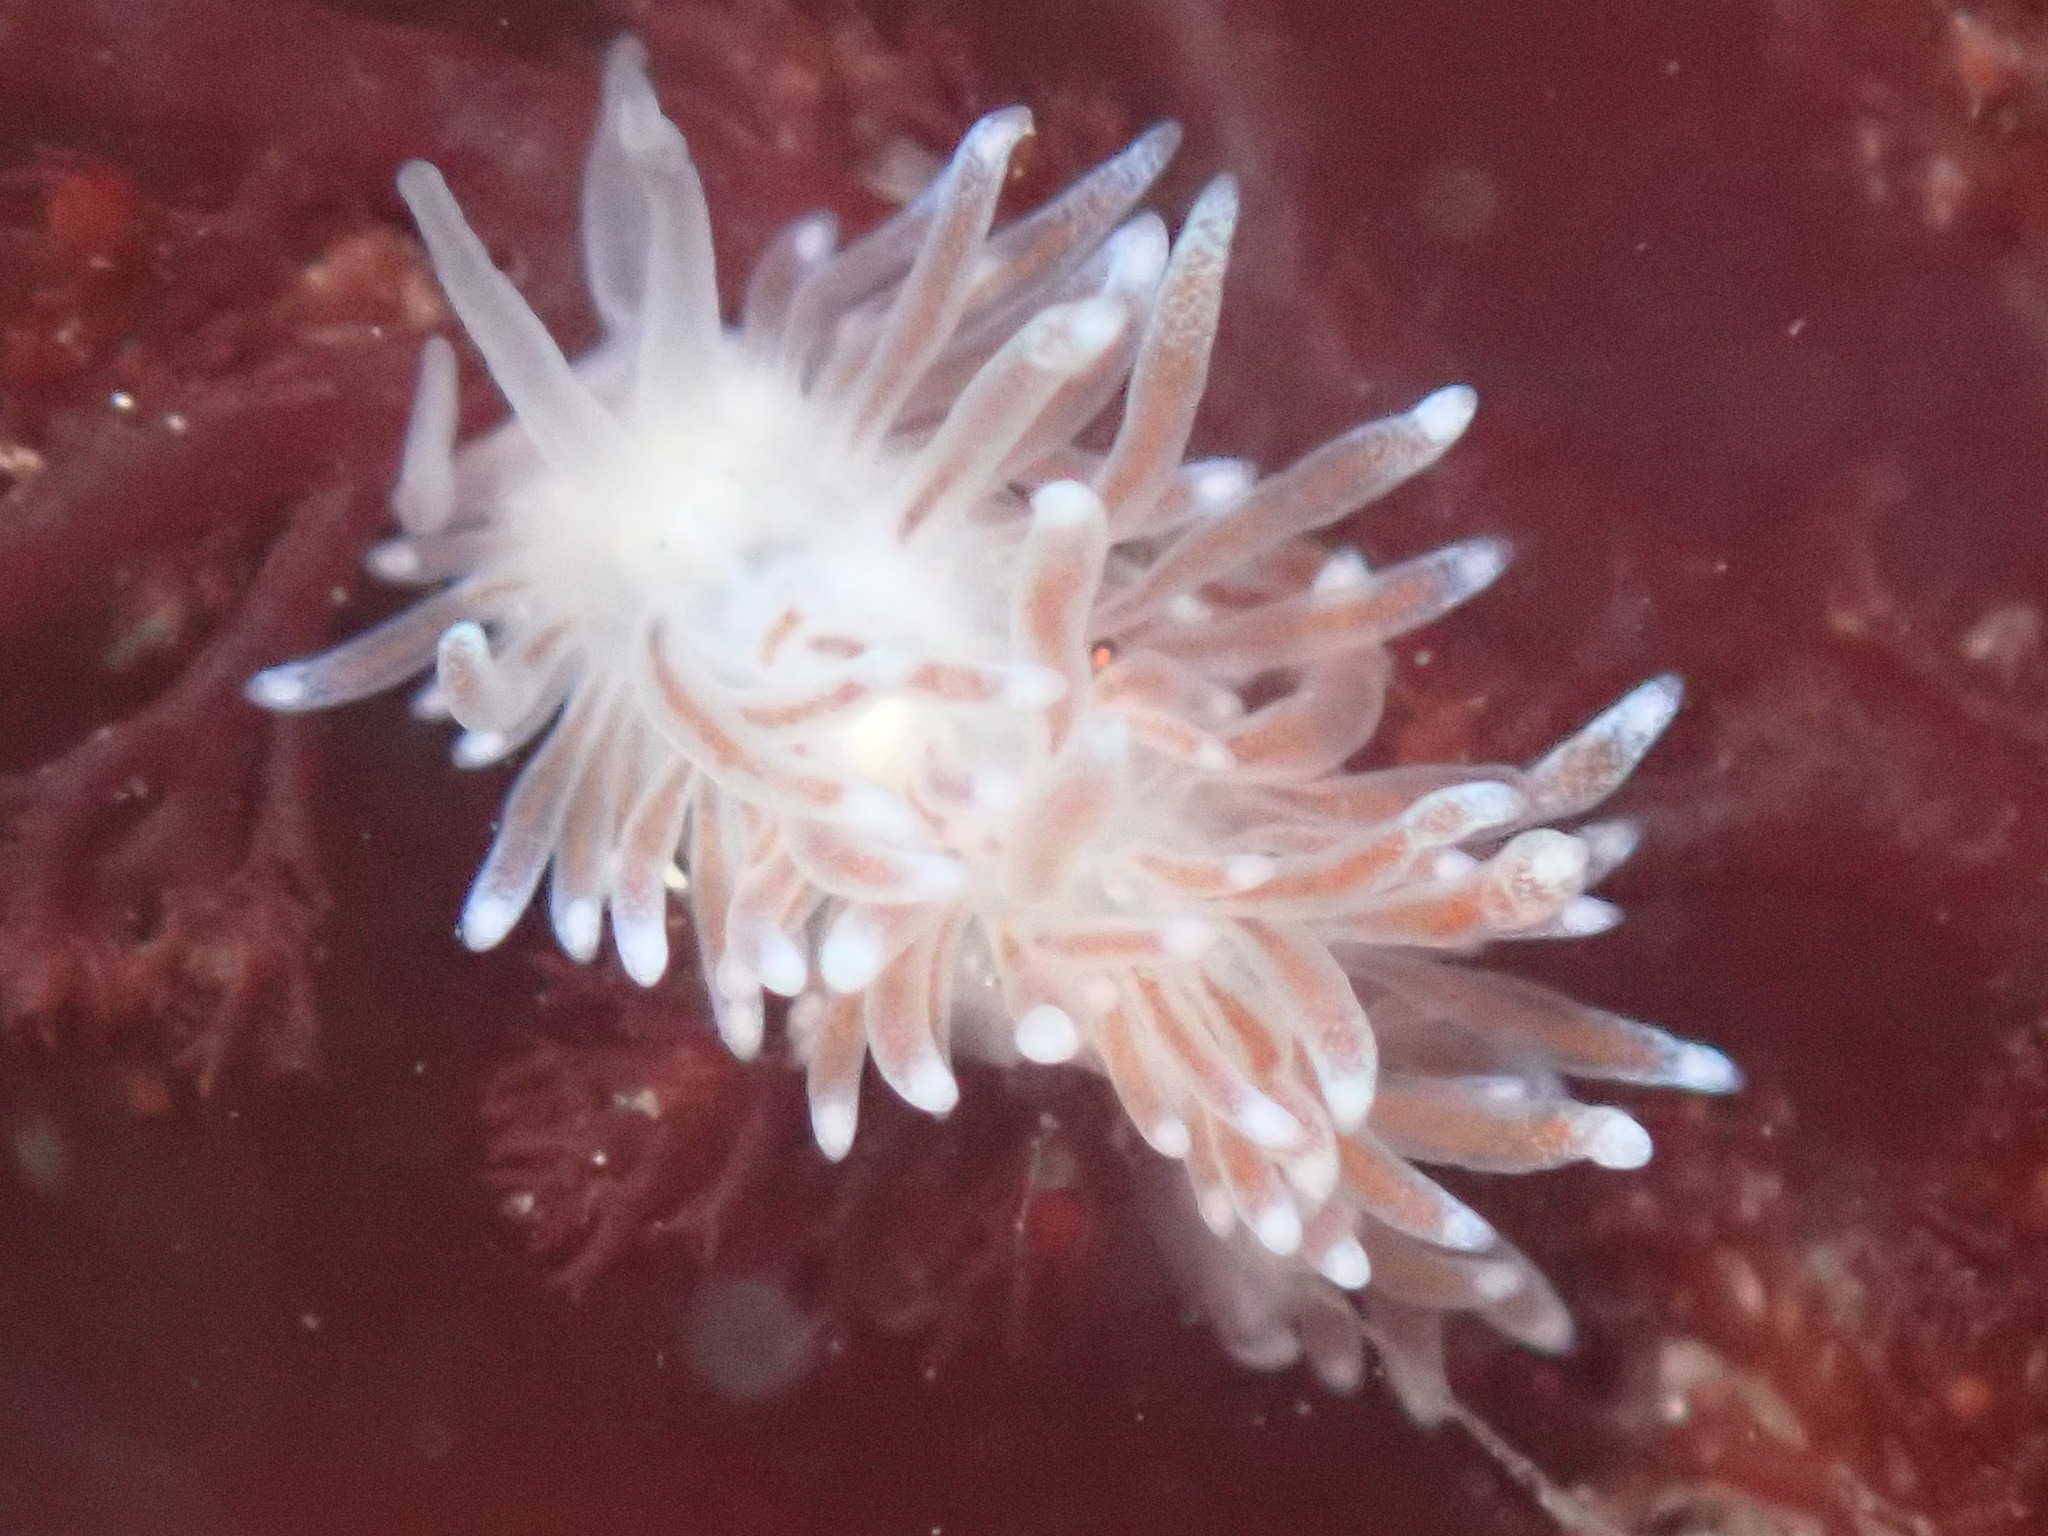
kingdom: Animalia
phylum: Mollusca
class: Gastropoda
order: Nudibranchia
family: Cuthonidae
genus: Cuthona
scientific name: Cuthona divae
